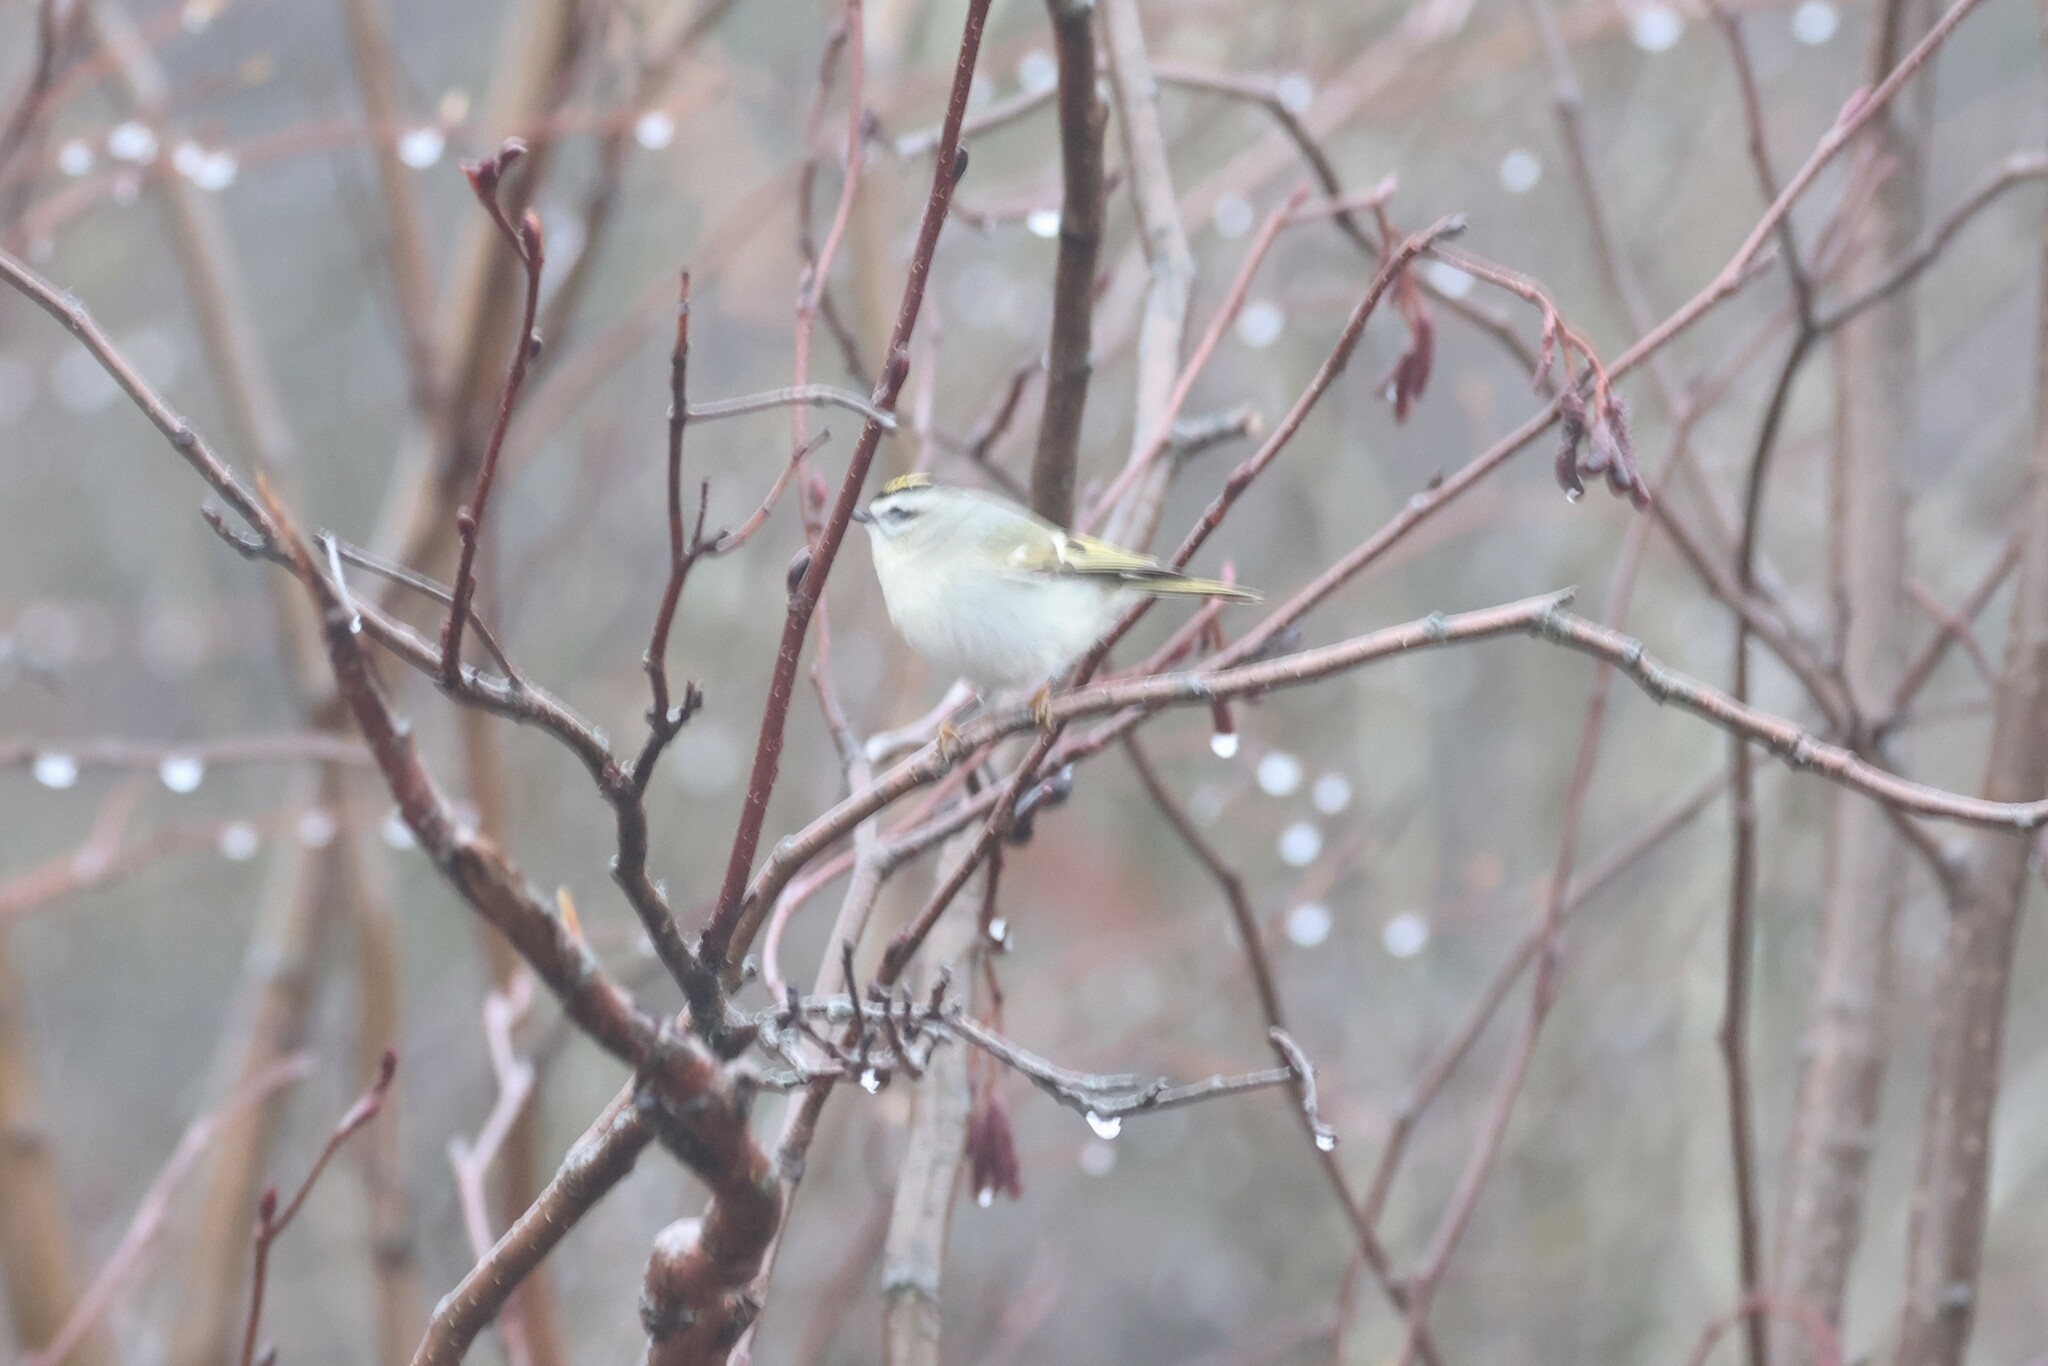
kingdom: Animalia
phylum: Chordata
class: Aves
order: Passeriformes
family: Regulidae
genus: Regulus
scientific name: Regulus satrapa
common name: Golden-crowned kinglet
